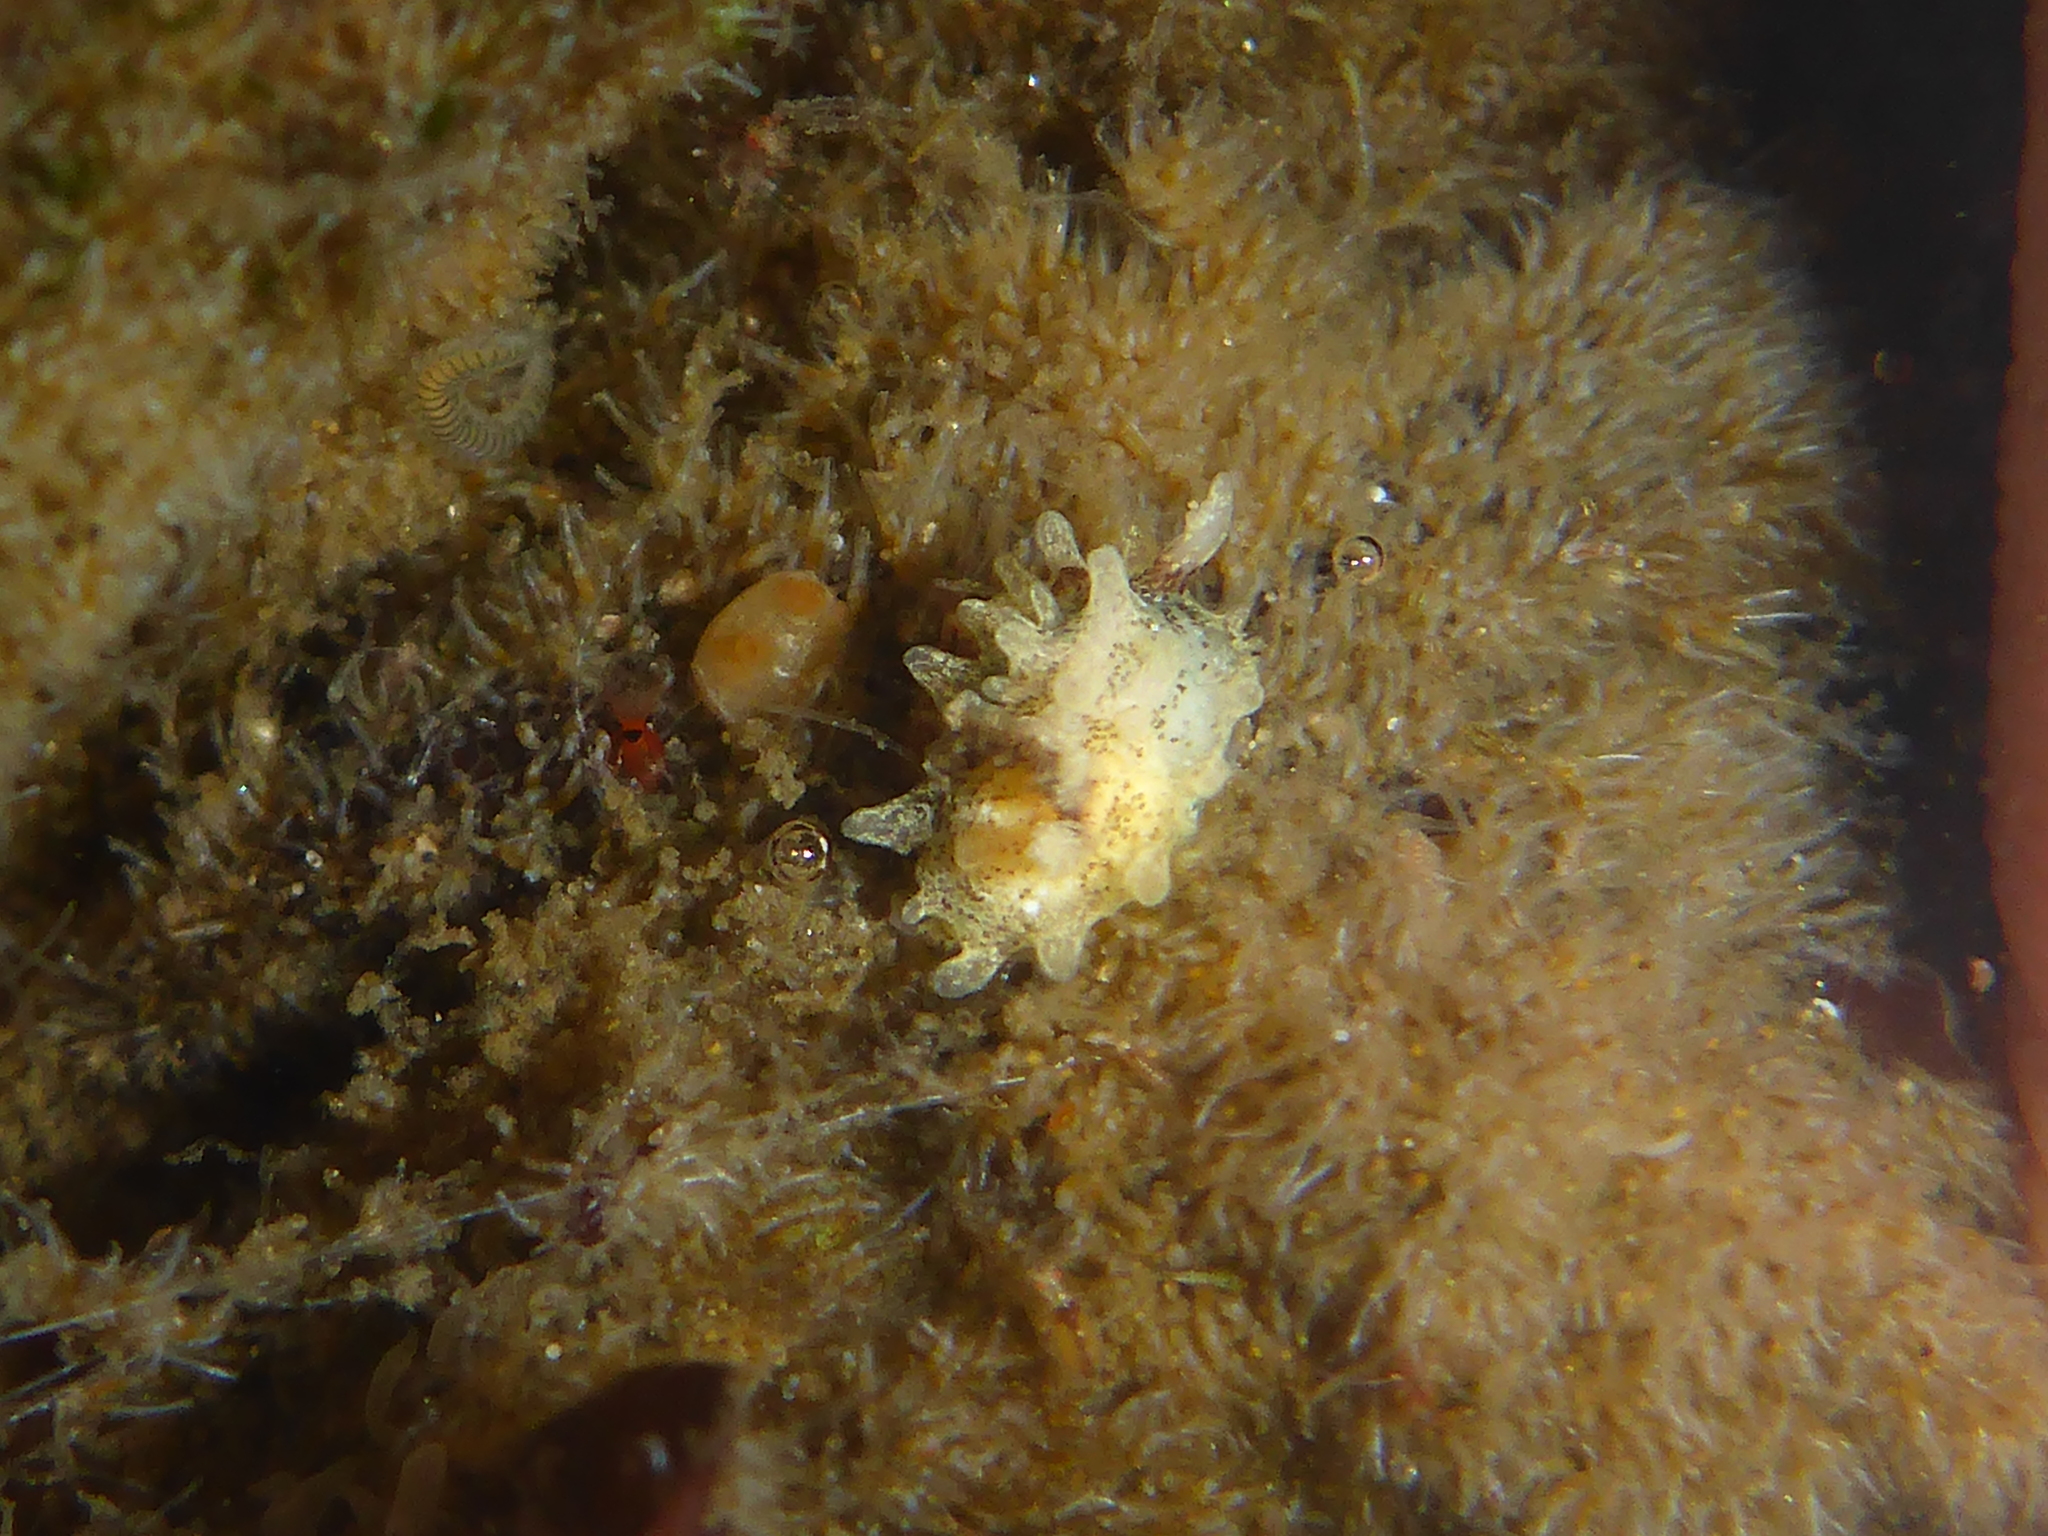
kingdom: Animalia
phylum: Mollusca
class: Gastropoda
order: Nudibranchia
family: Goniodorididae
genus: Okenia
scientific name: Okenia
